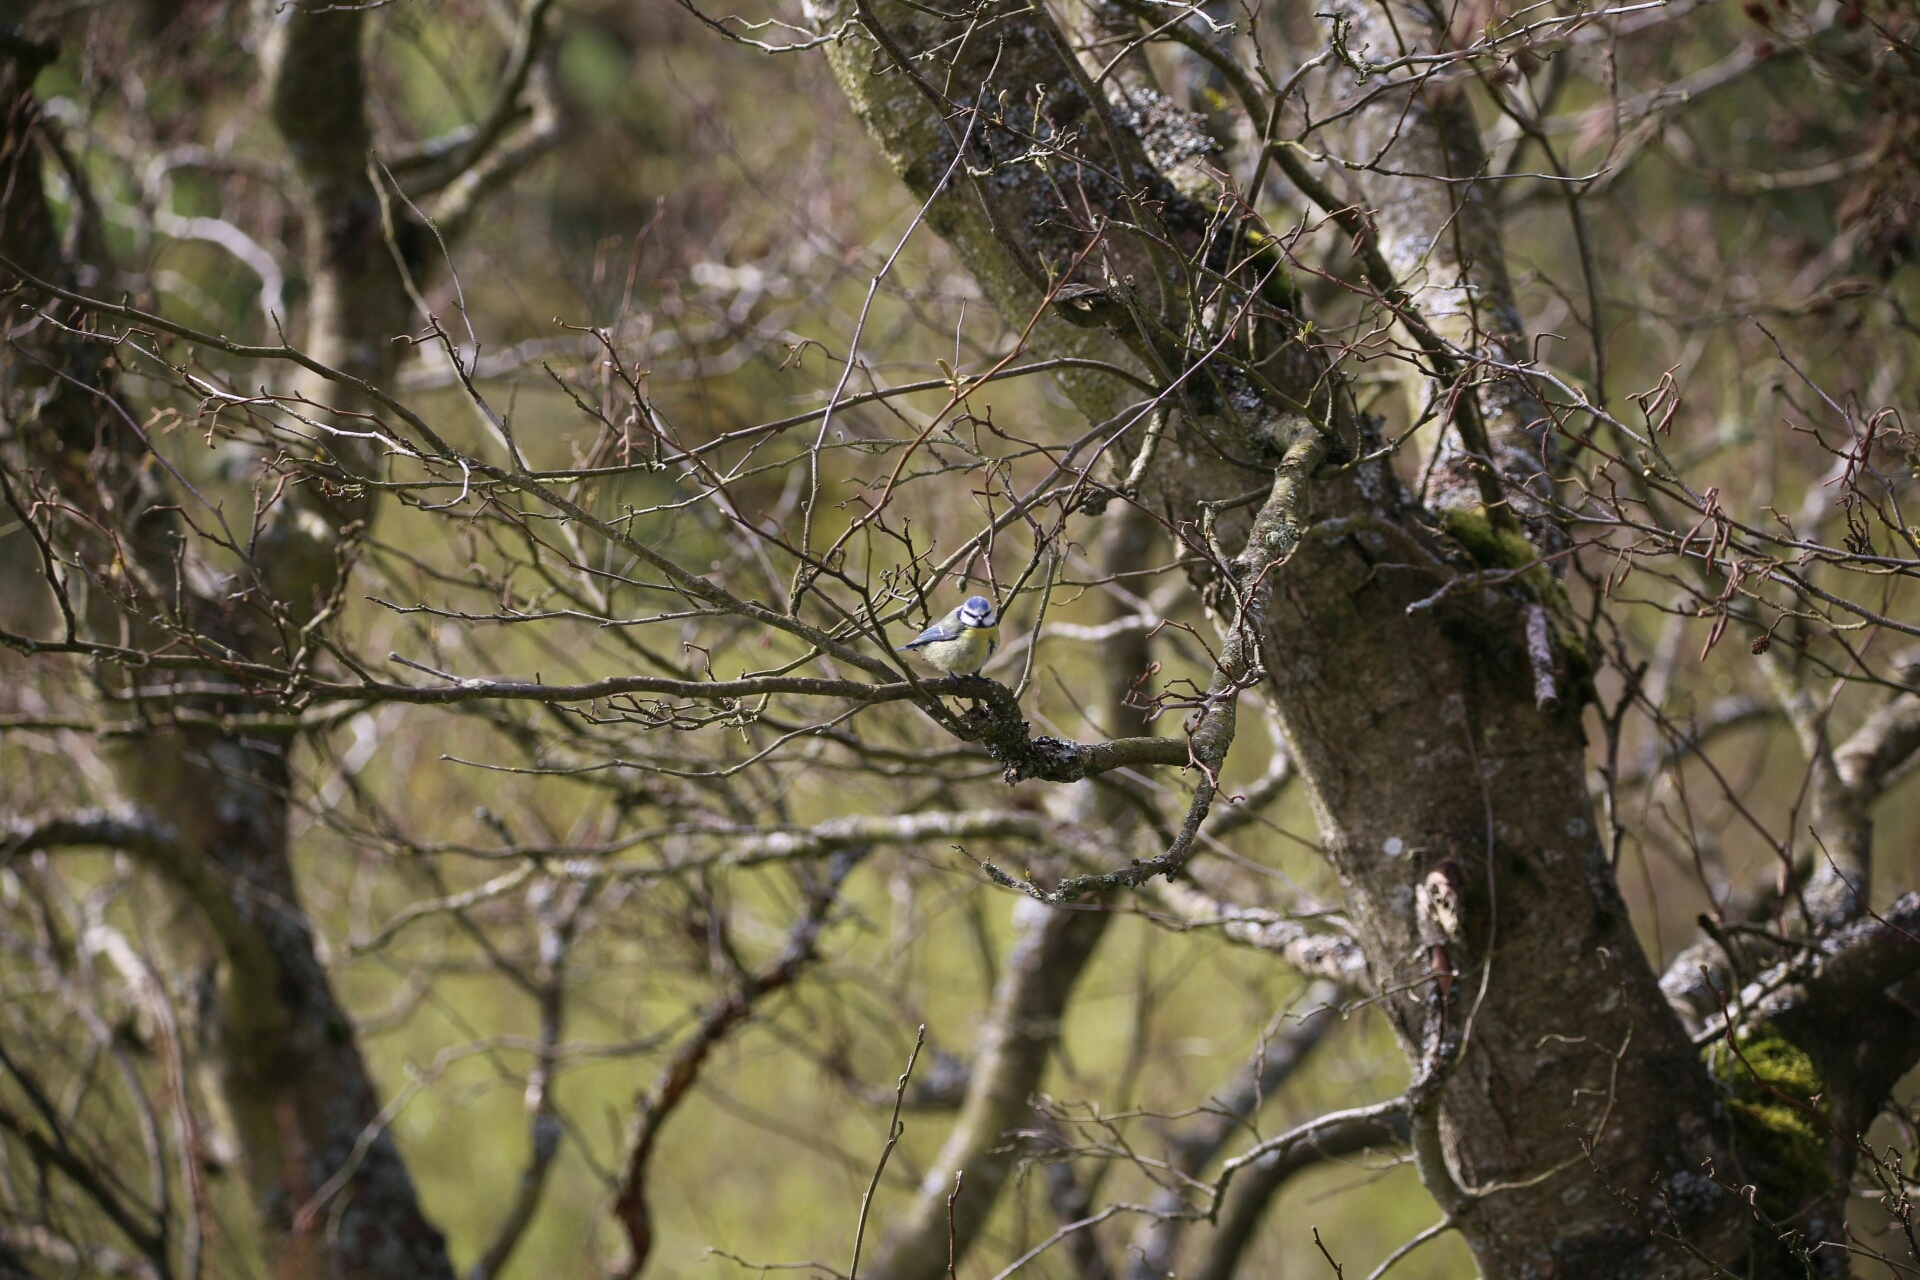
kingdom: Animalia
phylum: Chordata
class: Aves
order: Passeriformes
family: Paridae
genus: Cyanistes
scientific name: Cyanistes caeruleus
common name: Eurasian blue tit
